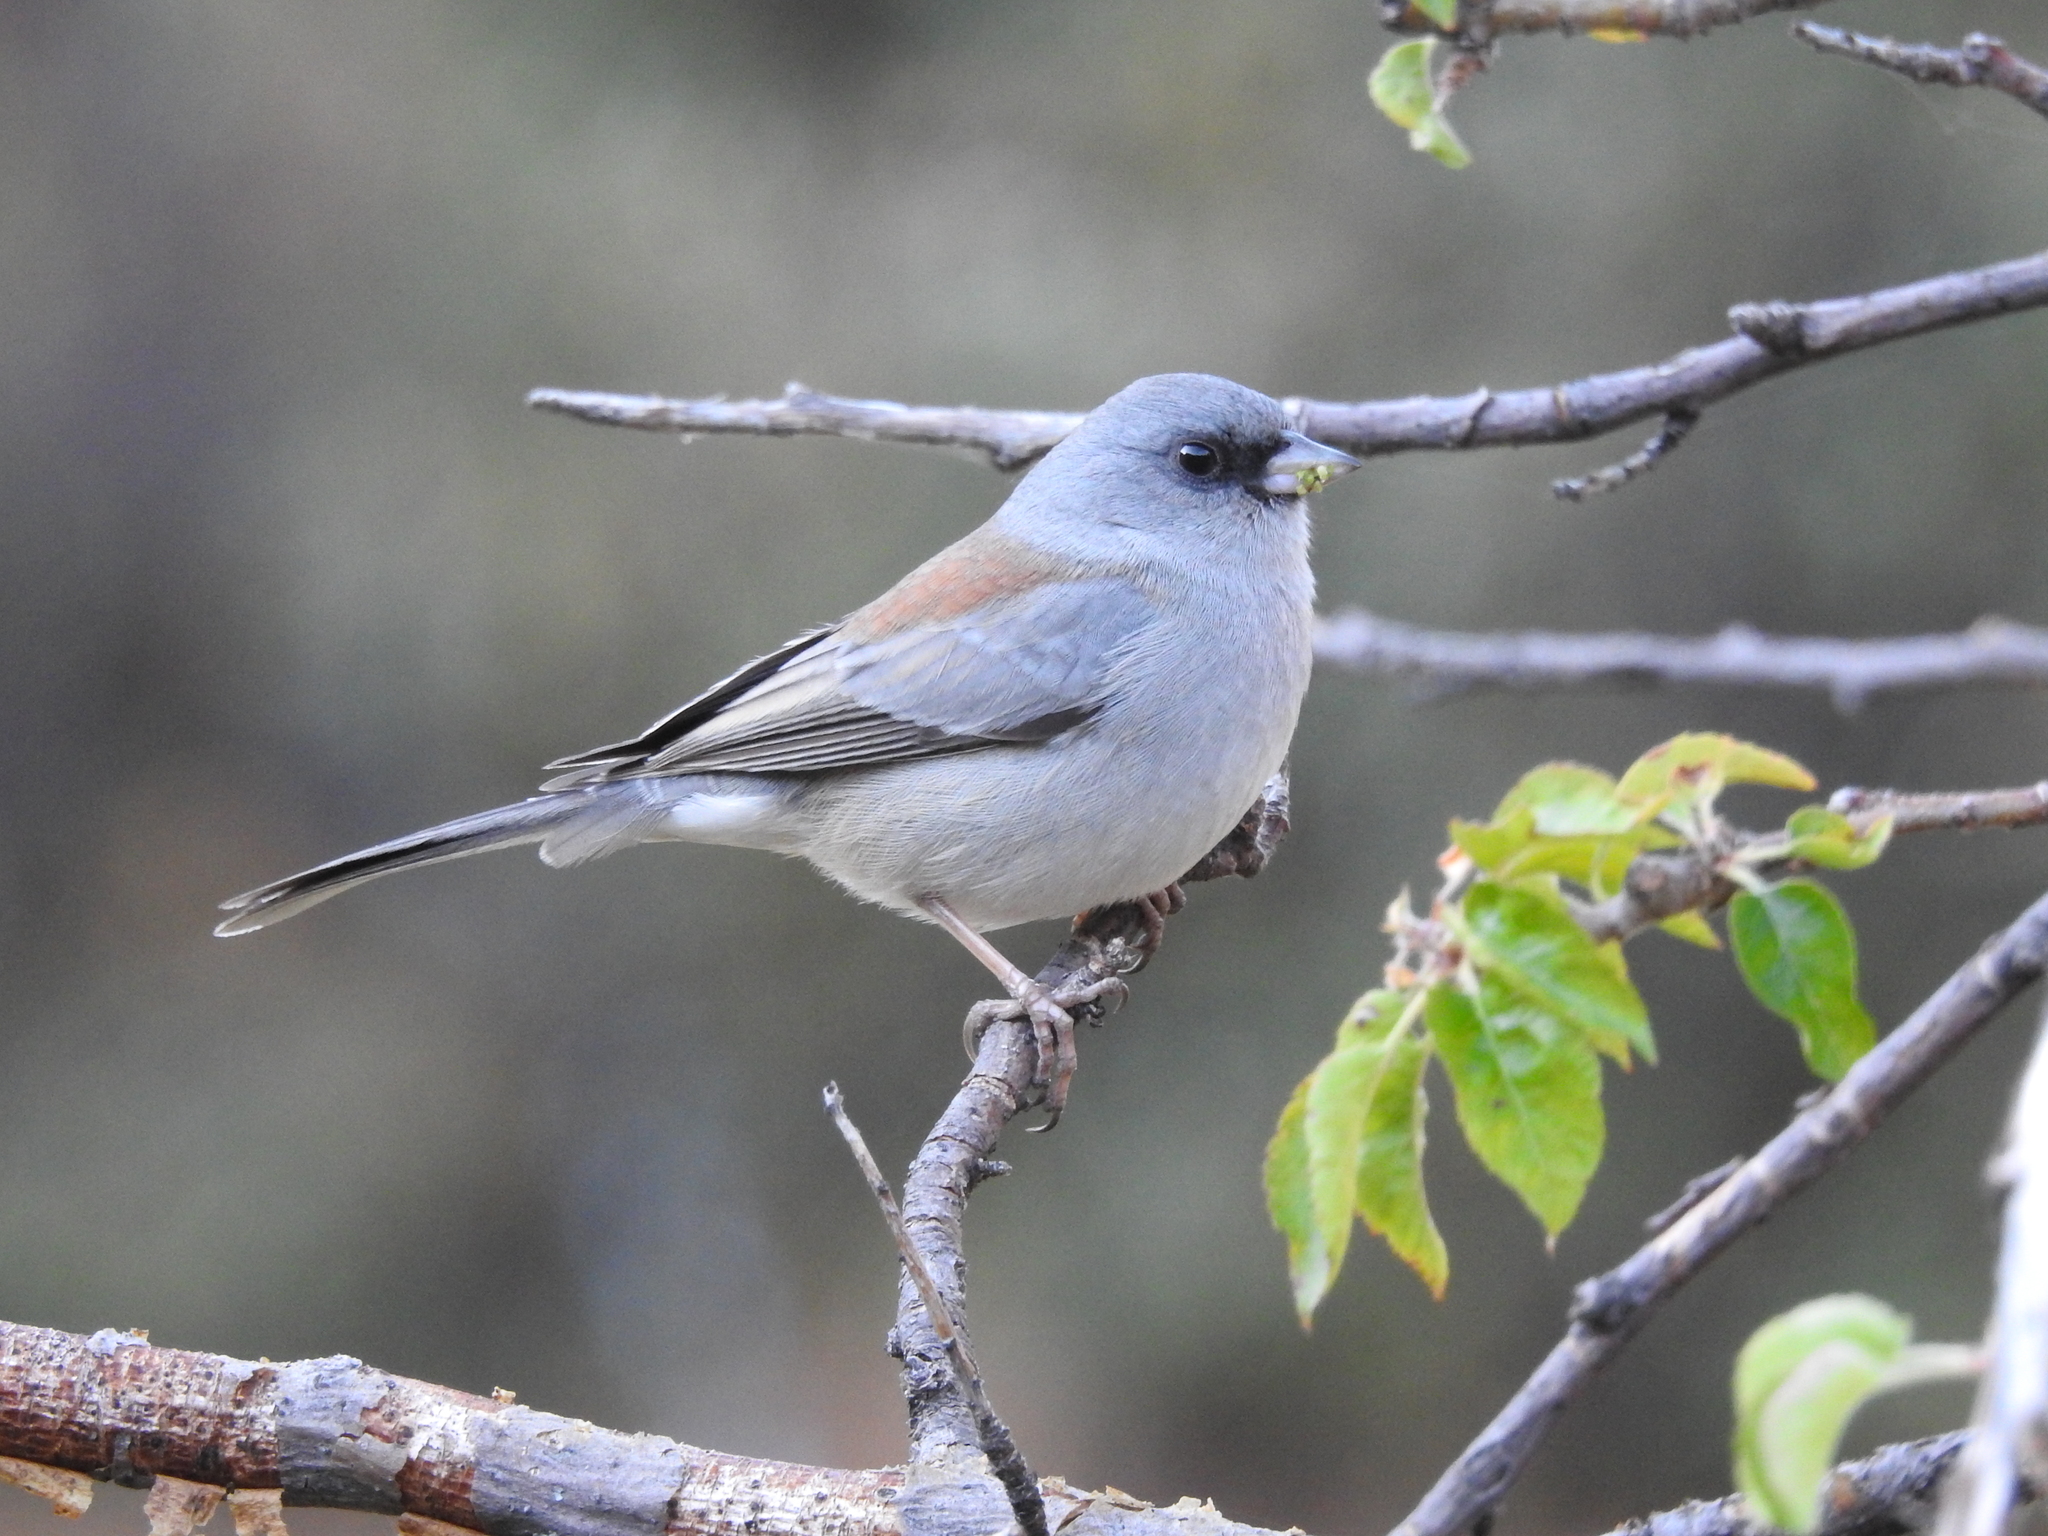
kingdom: Animalia
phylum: Chordata
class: Aves
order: Passeriformes
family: Passerellidae
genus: Junco
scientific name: Junco hyemalis
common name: Dark-eyed junco
